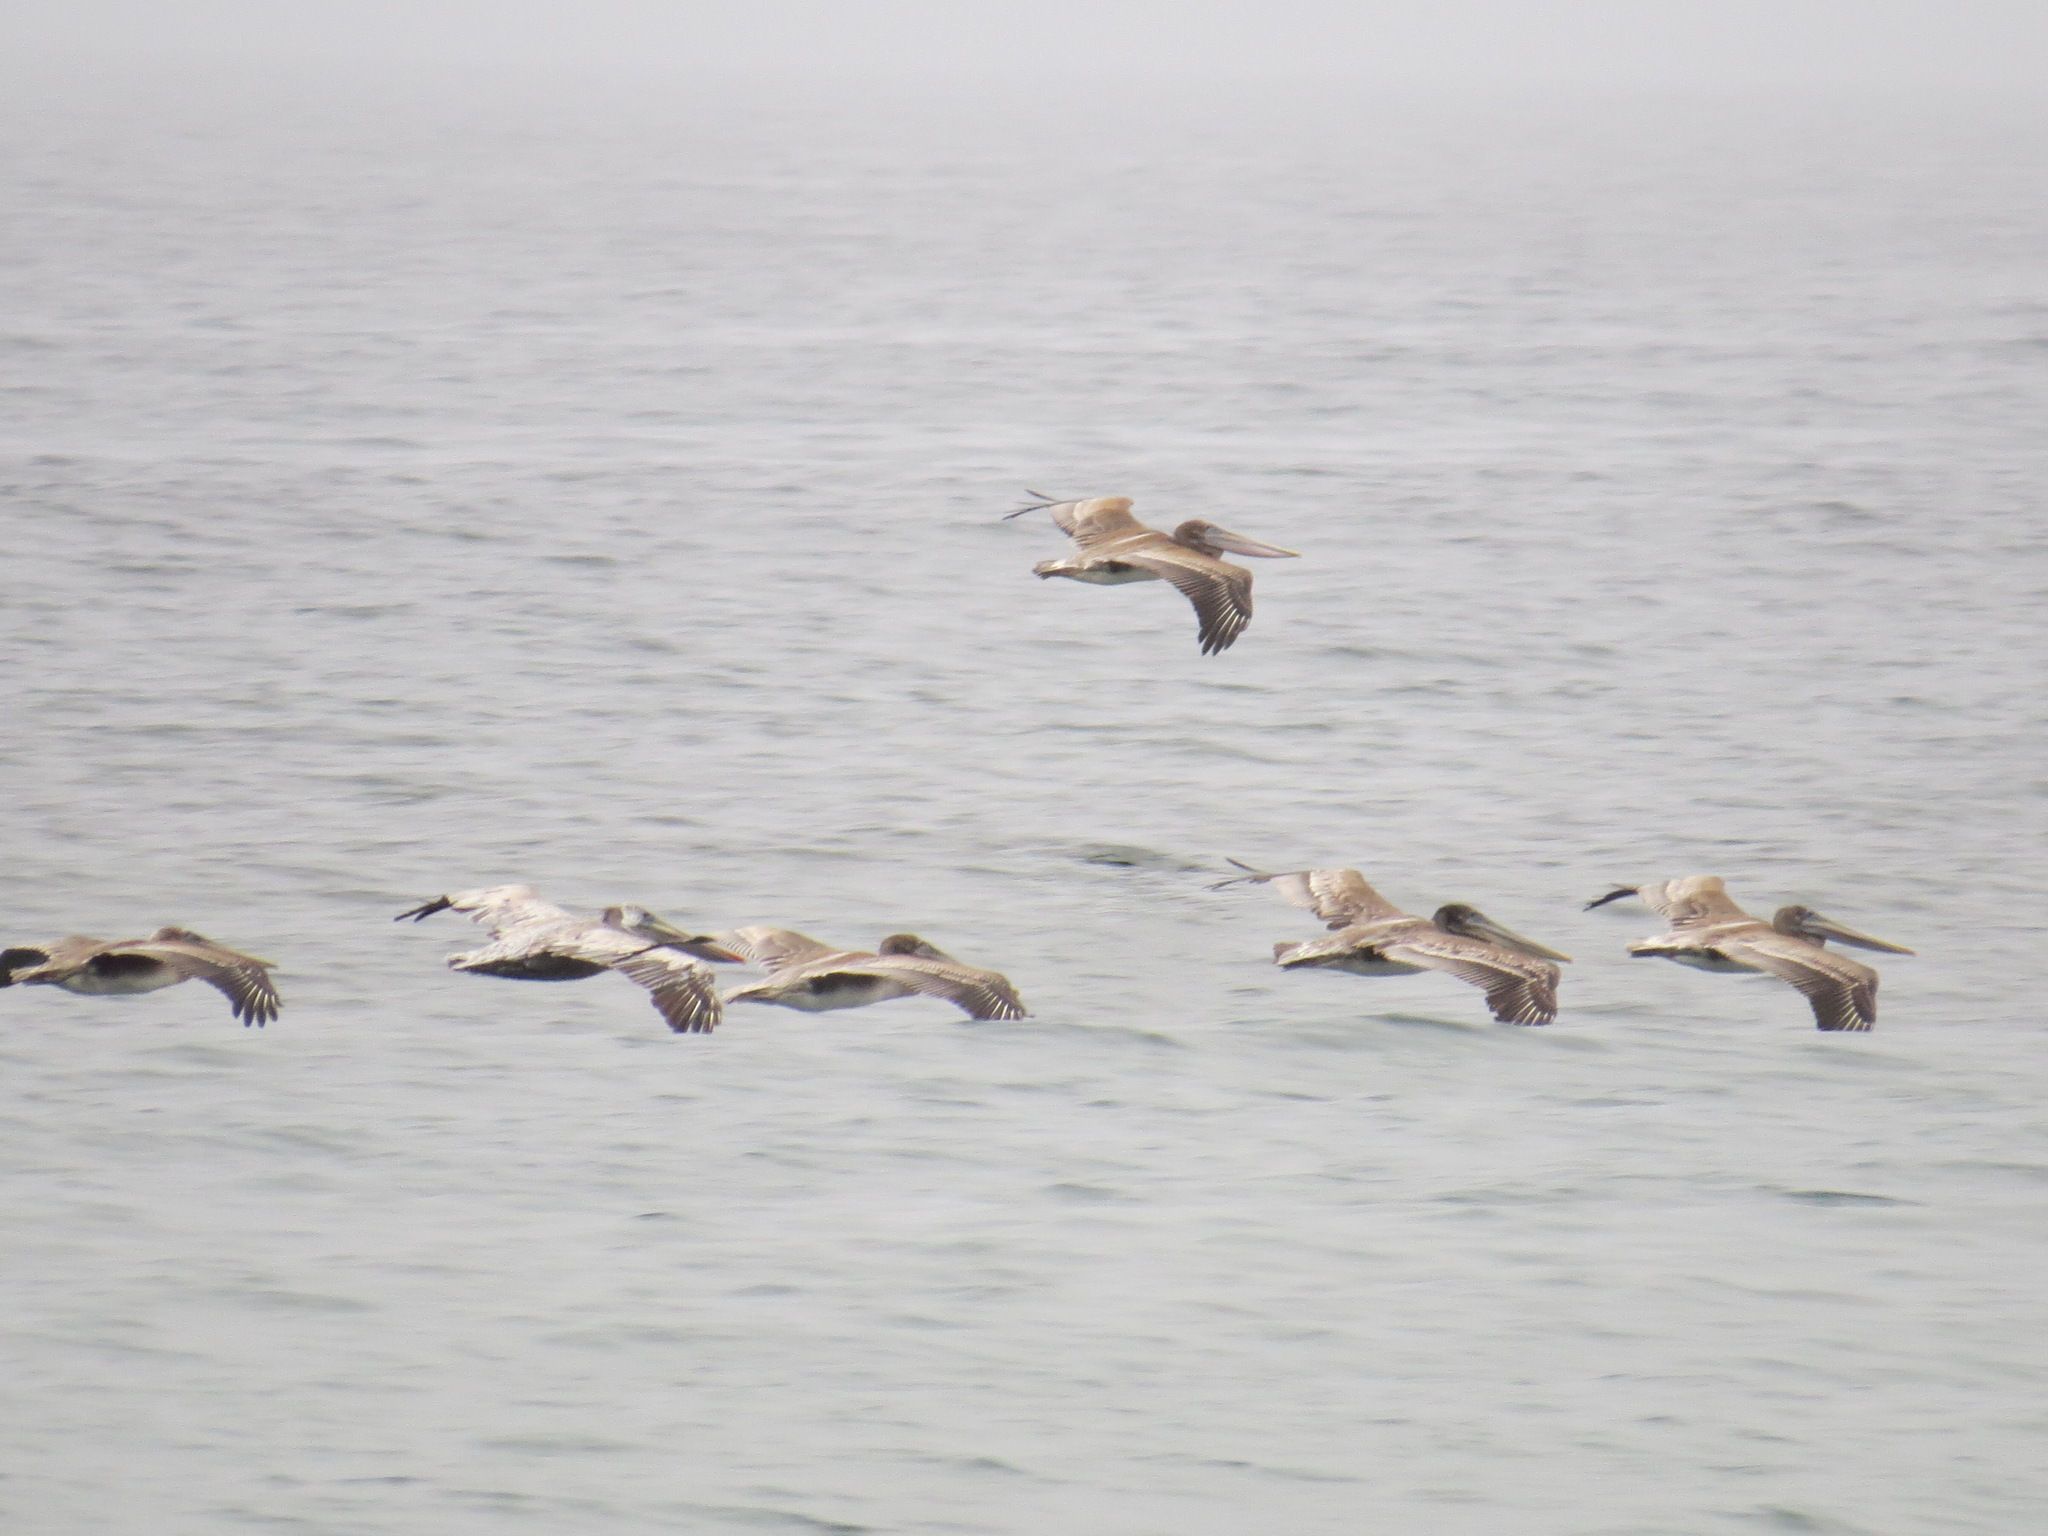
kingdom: Animalia
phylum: Chordata
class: Aves
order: Pelecaniformes
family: Pelecanidae
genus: Pelecanus
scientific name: Pelecanus occidentalis
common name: Brown pelican
